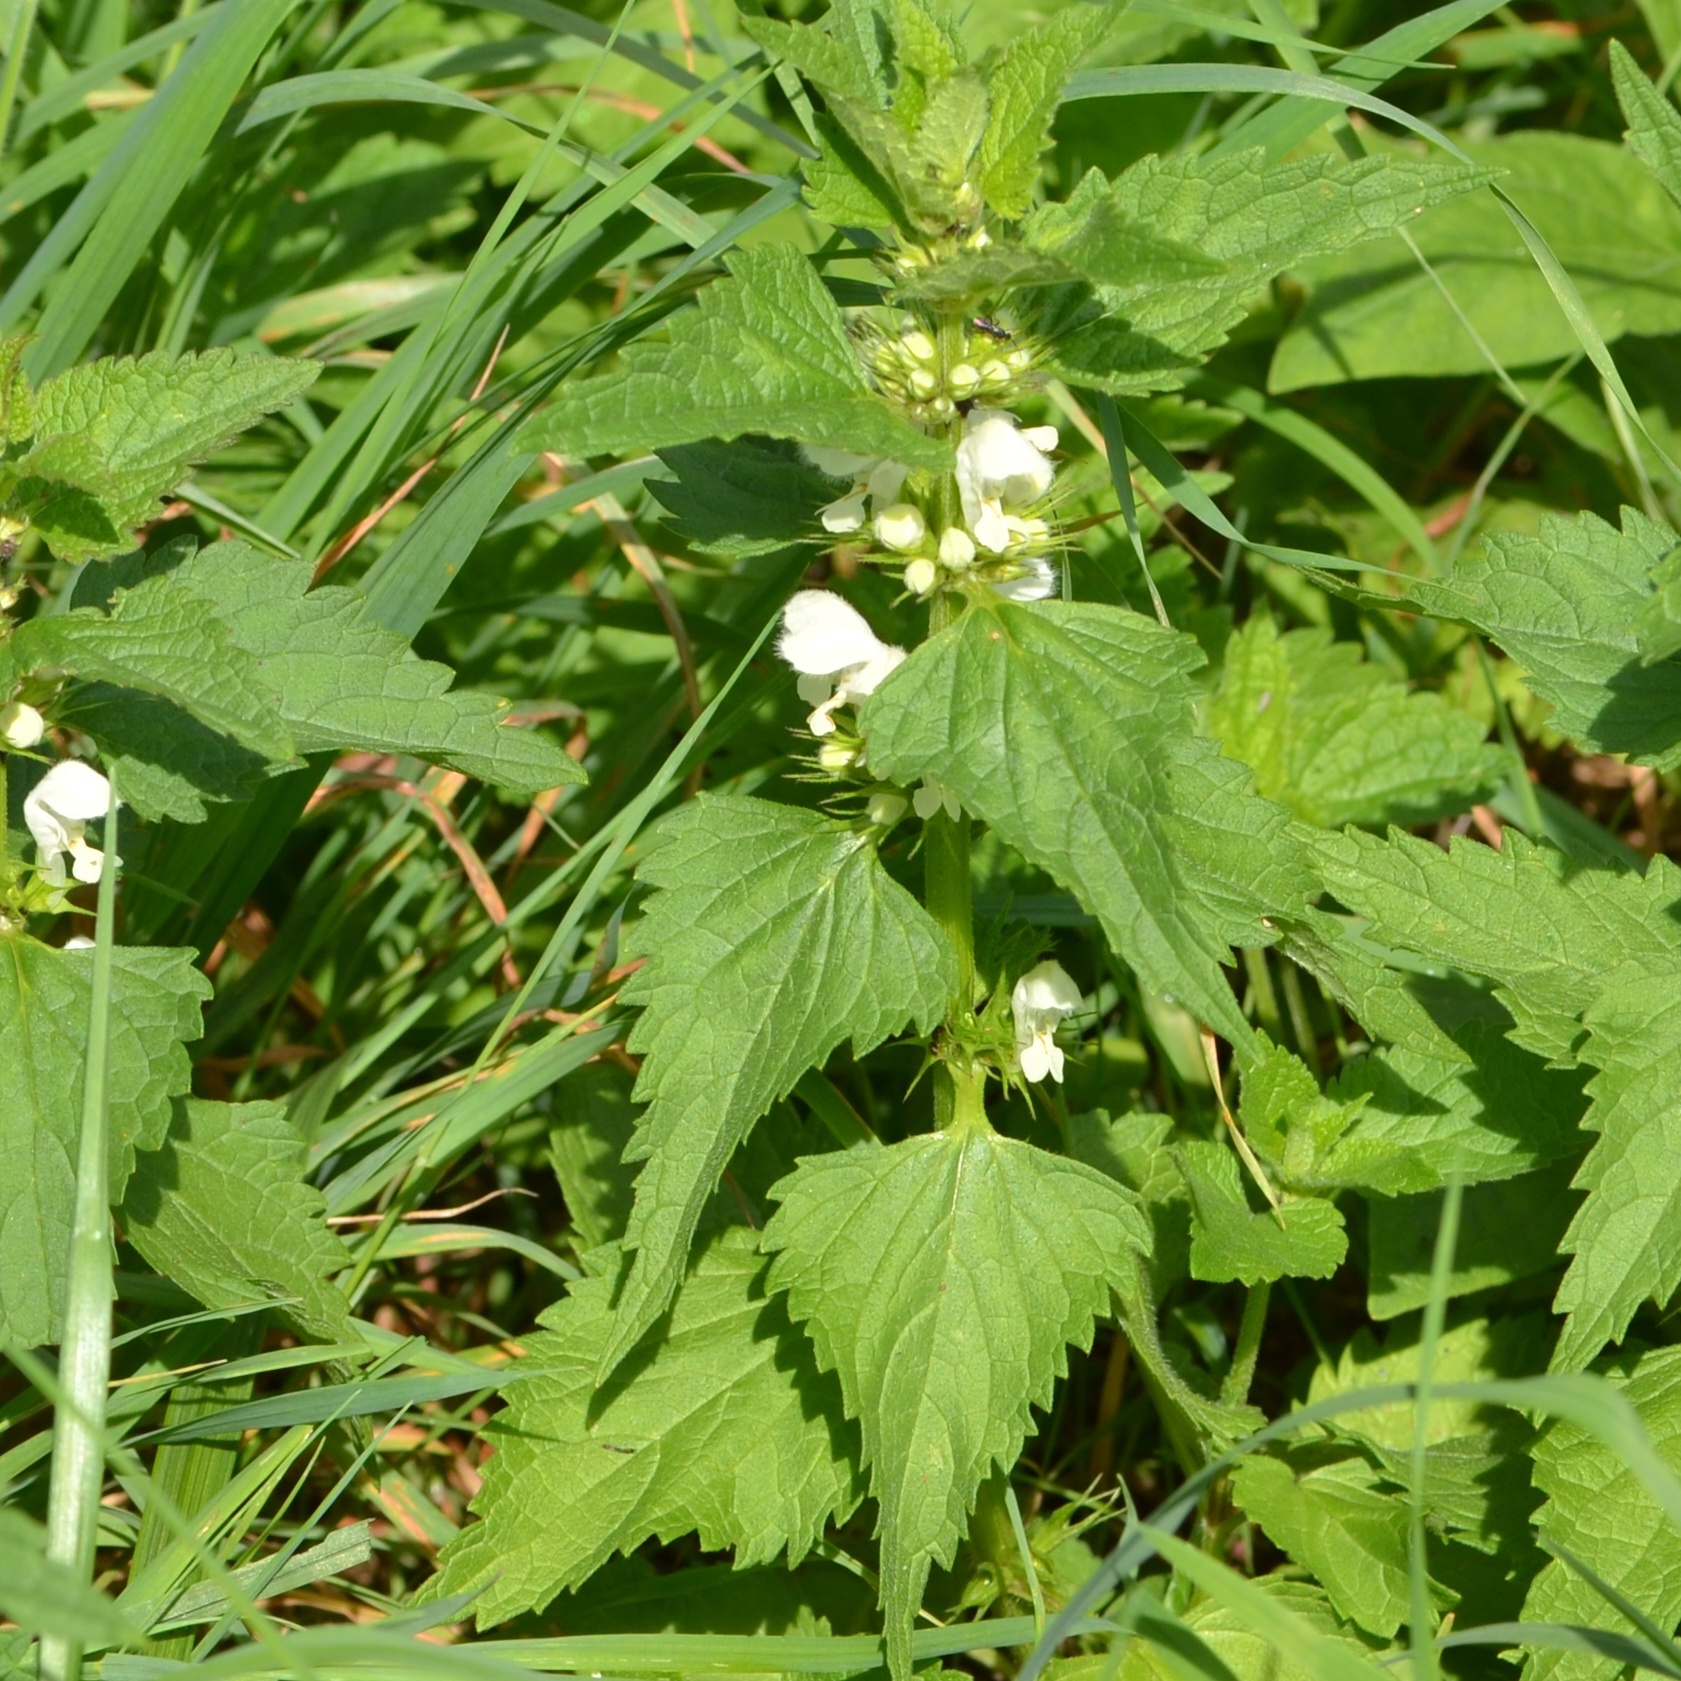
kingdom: Plantae
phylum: Tracheophyta
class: Magnoliopsida
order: Lamiales
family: Lamiaceae
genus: Lamium
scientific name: Lamium album
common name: White dead-nettle
